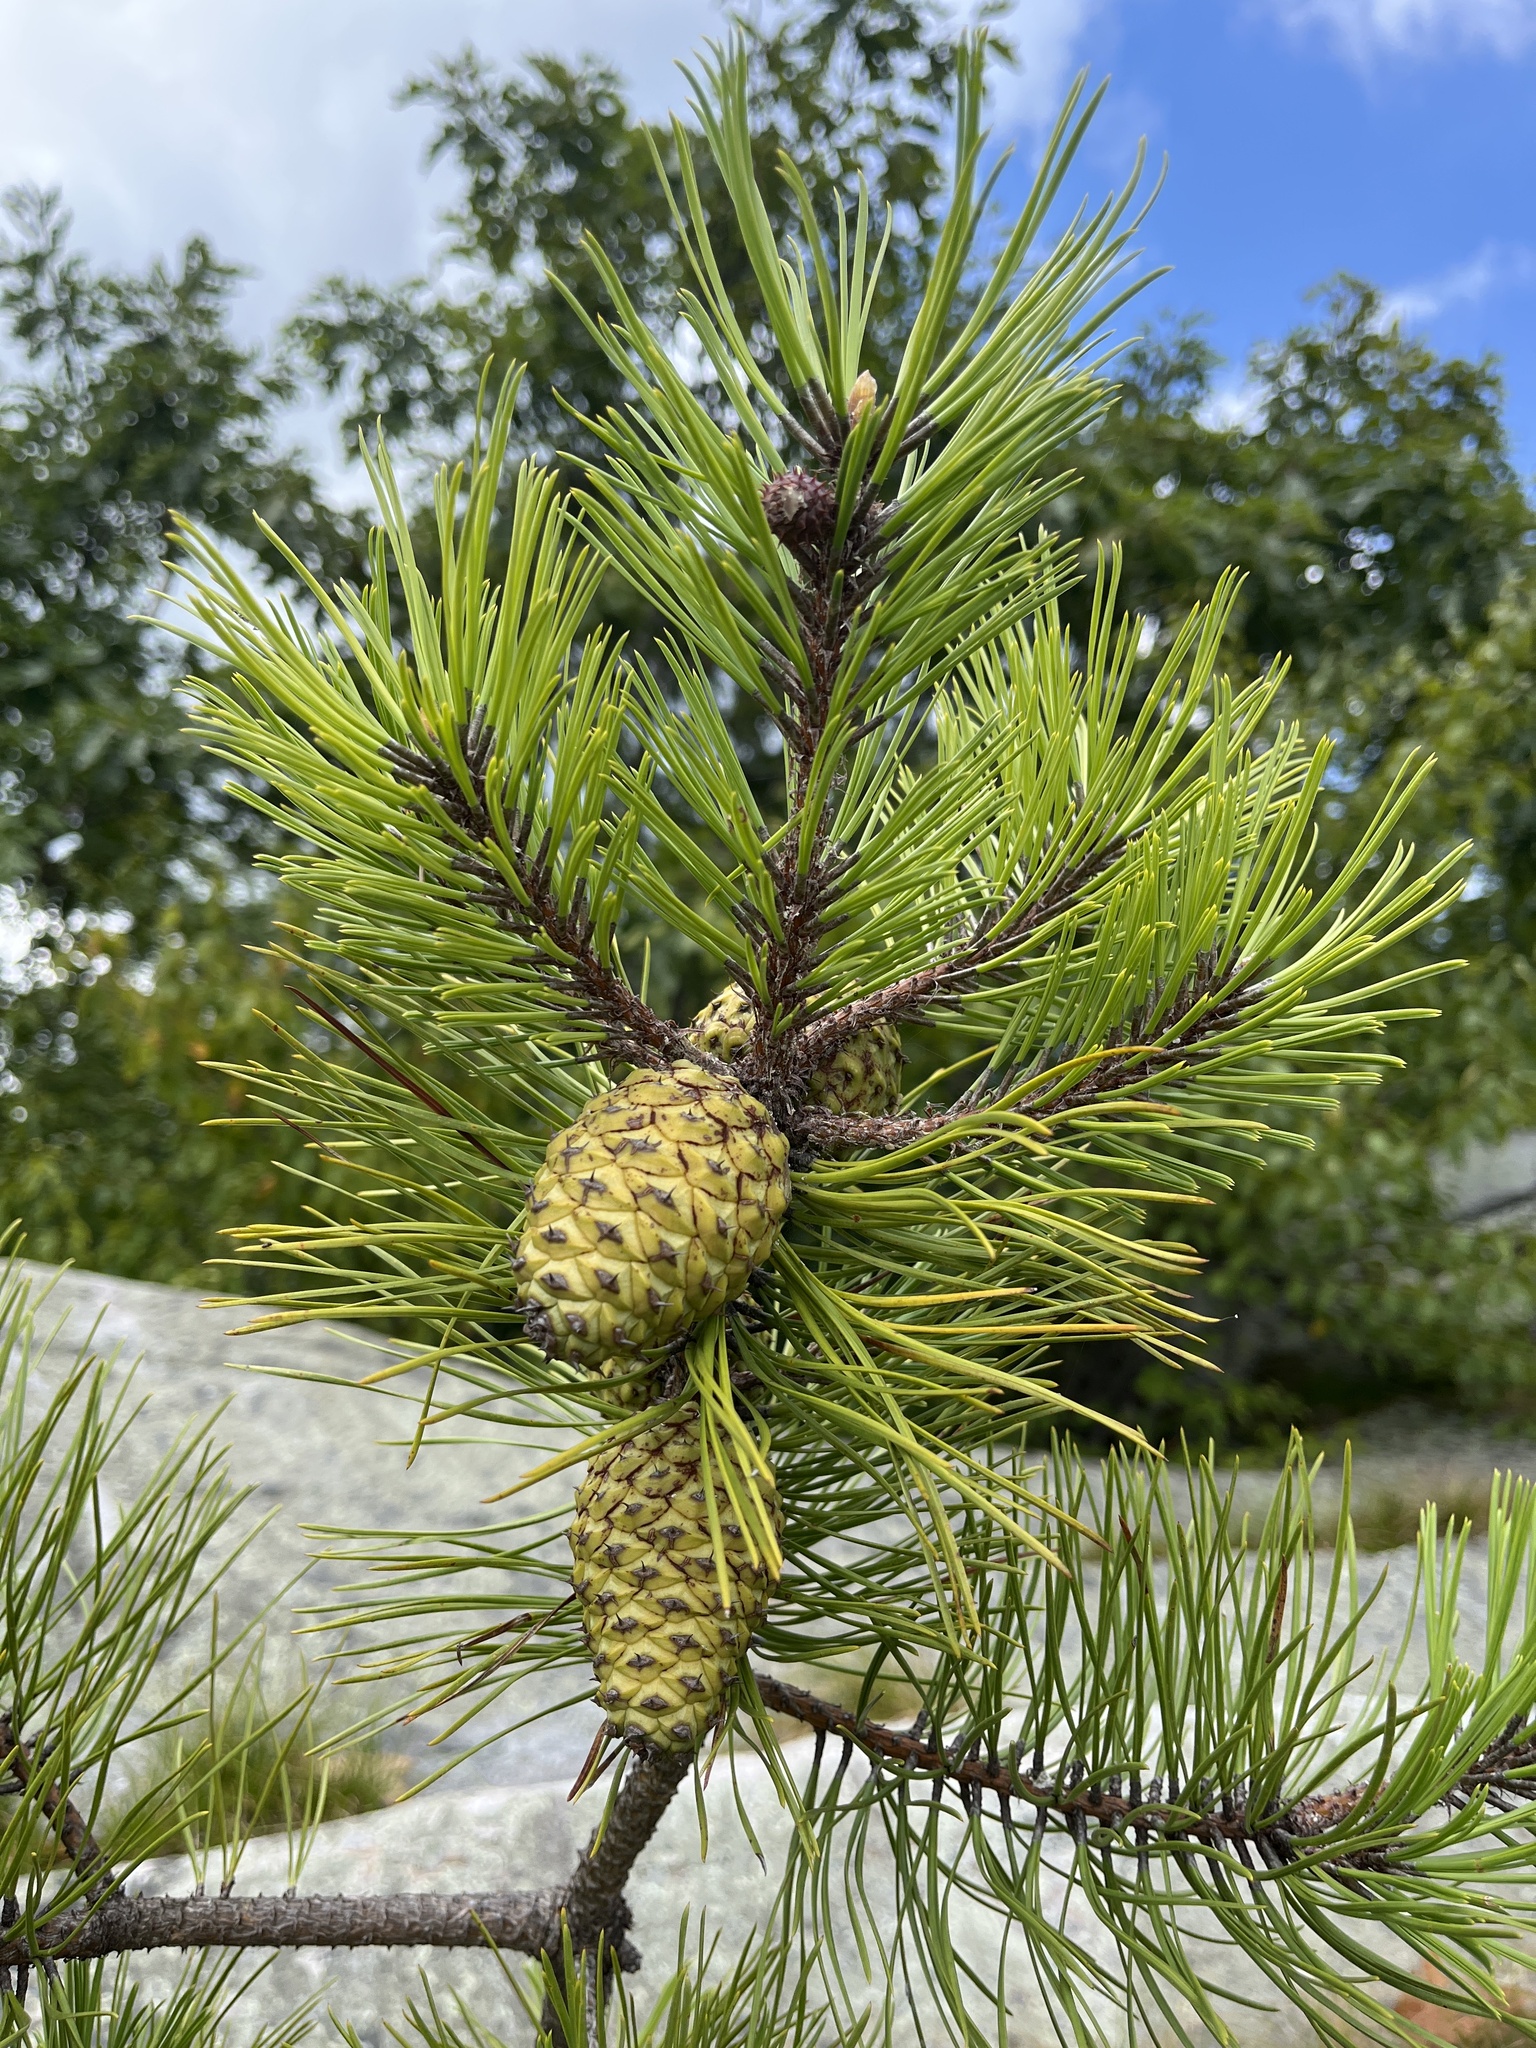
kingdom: Plantae
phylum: Tracheophyta
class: Pinopsida
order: Pinales
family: Pinaceae
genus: Pinus
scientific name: Pinus rigida
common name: Pitch pine
